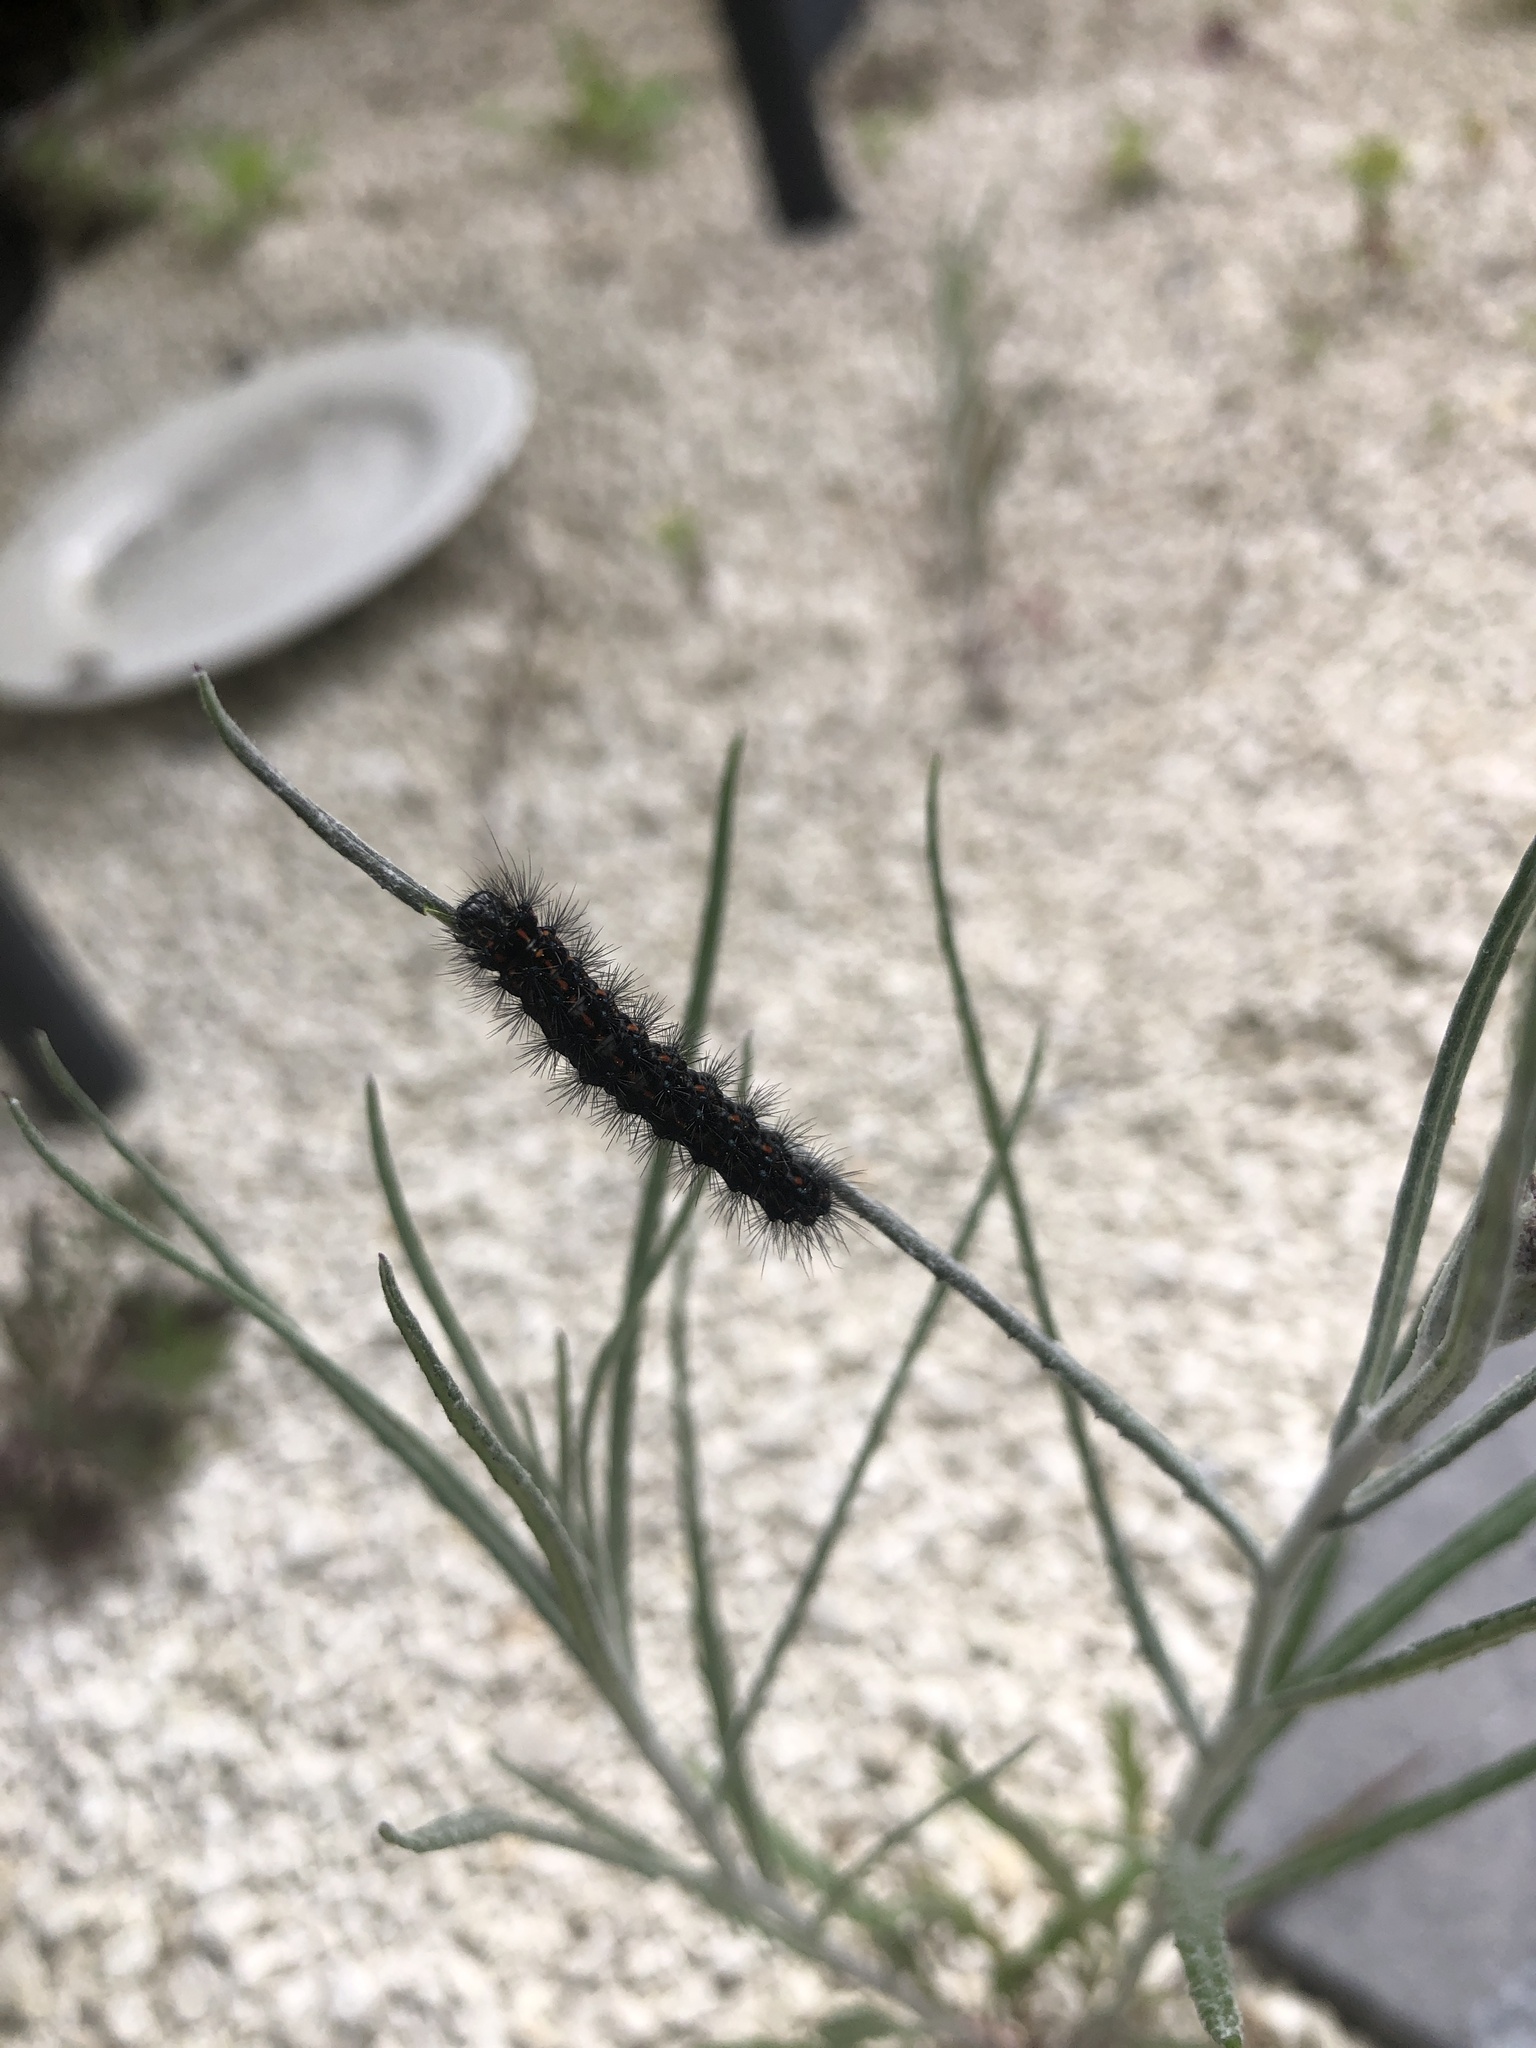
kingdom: Animalia
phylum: Arthropoda
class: Insecta
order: Lepidoptera
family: Erebidae
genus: Nyctemera
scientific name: Nyctemera annulatum
